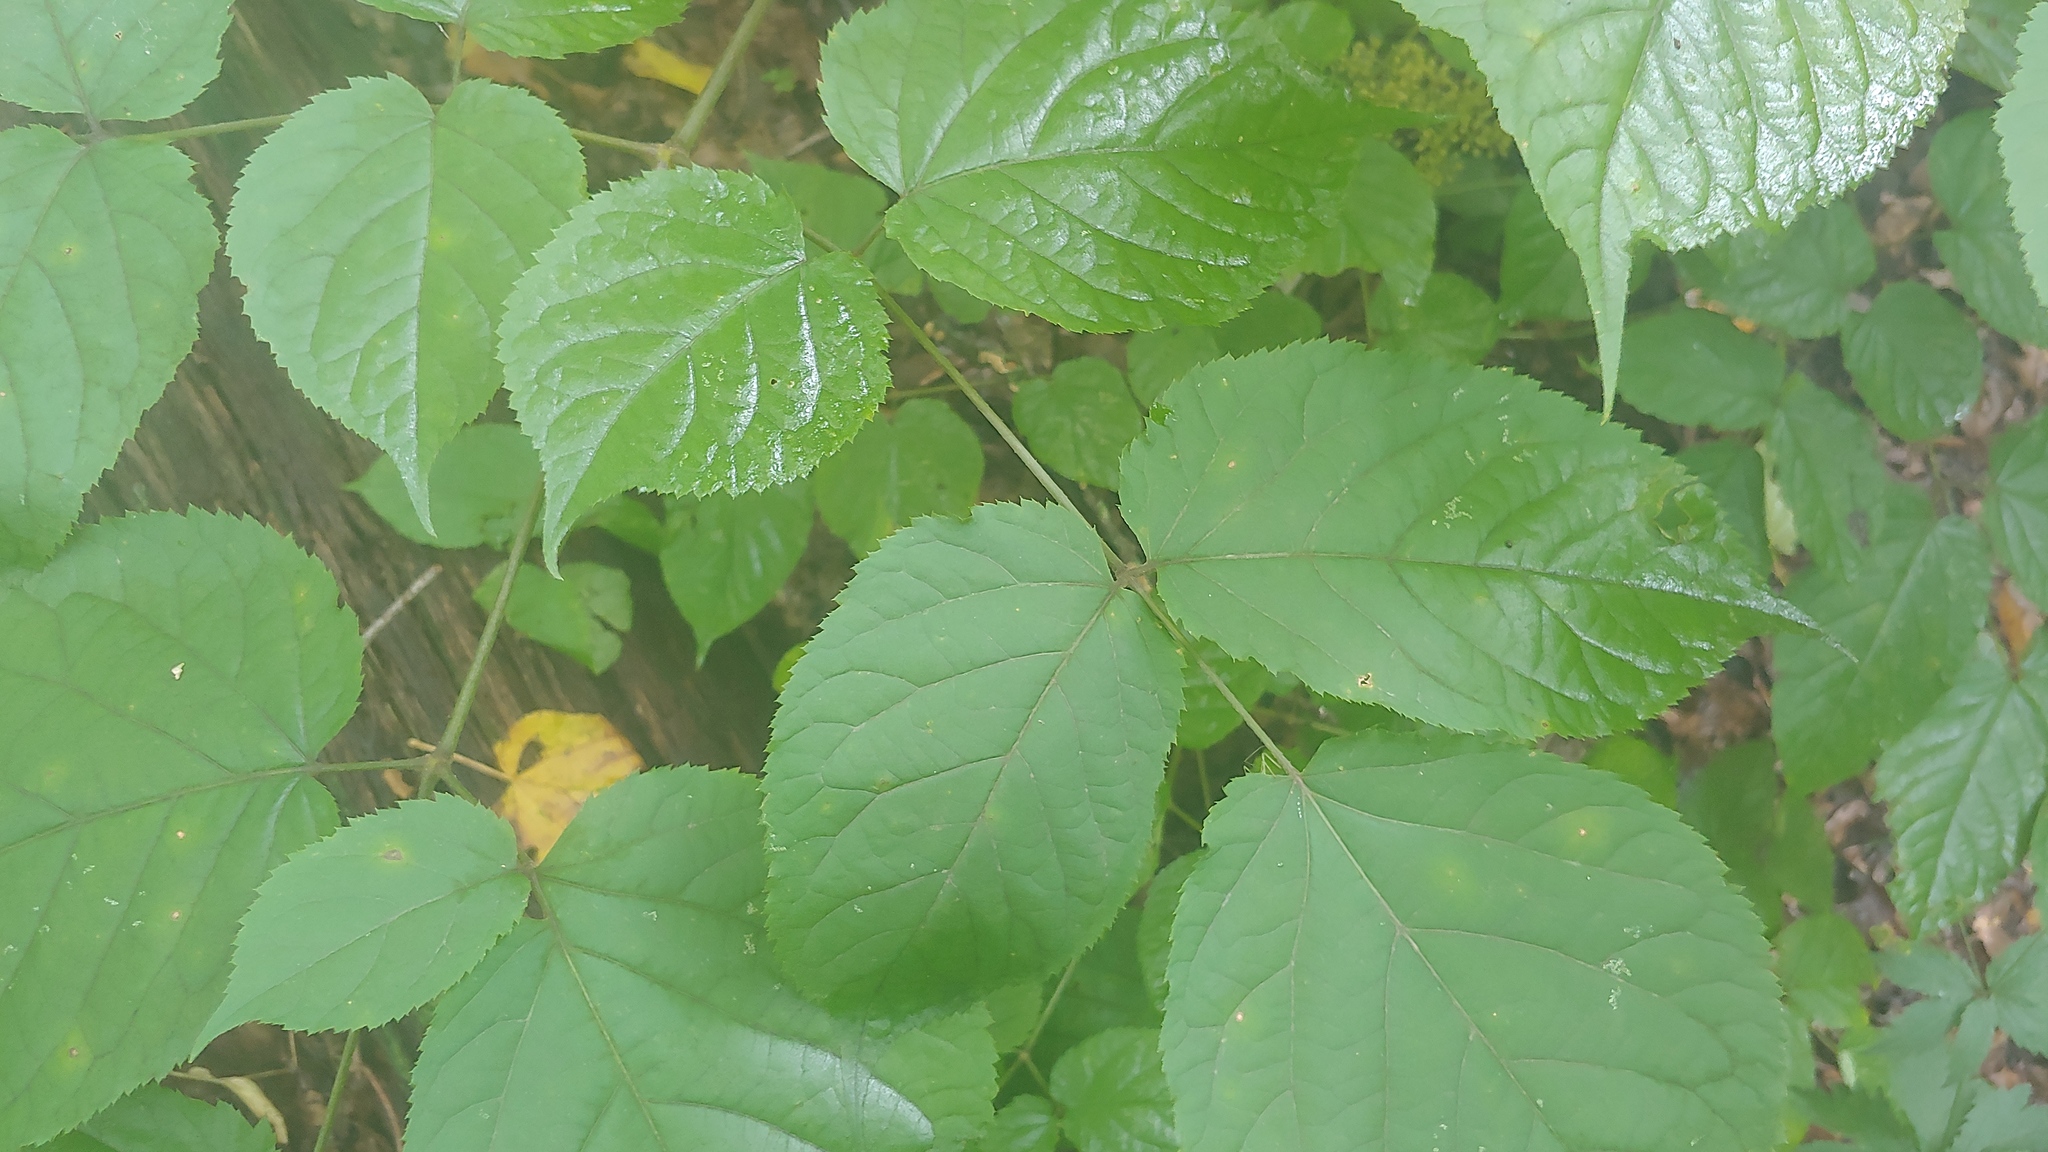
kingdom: Plantae
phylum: Tracheophyta
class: Magnoliopsida
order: Apiales
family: Araliaceae
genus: Aralia
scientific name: Aralia racemosa
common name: American-spikenard
